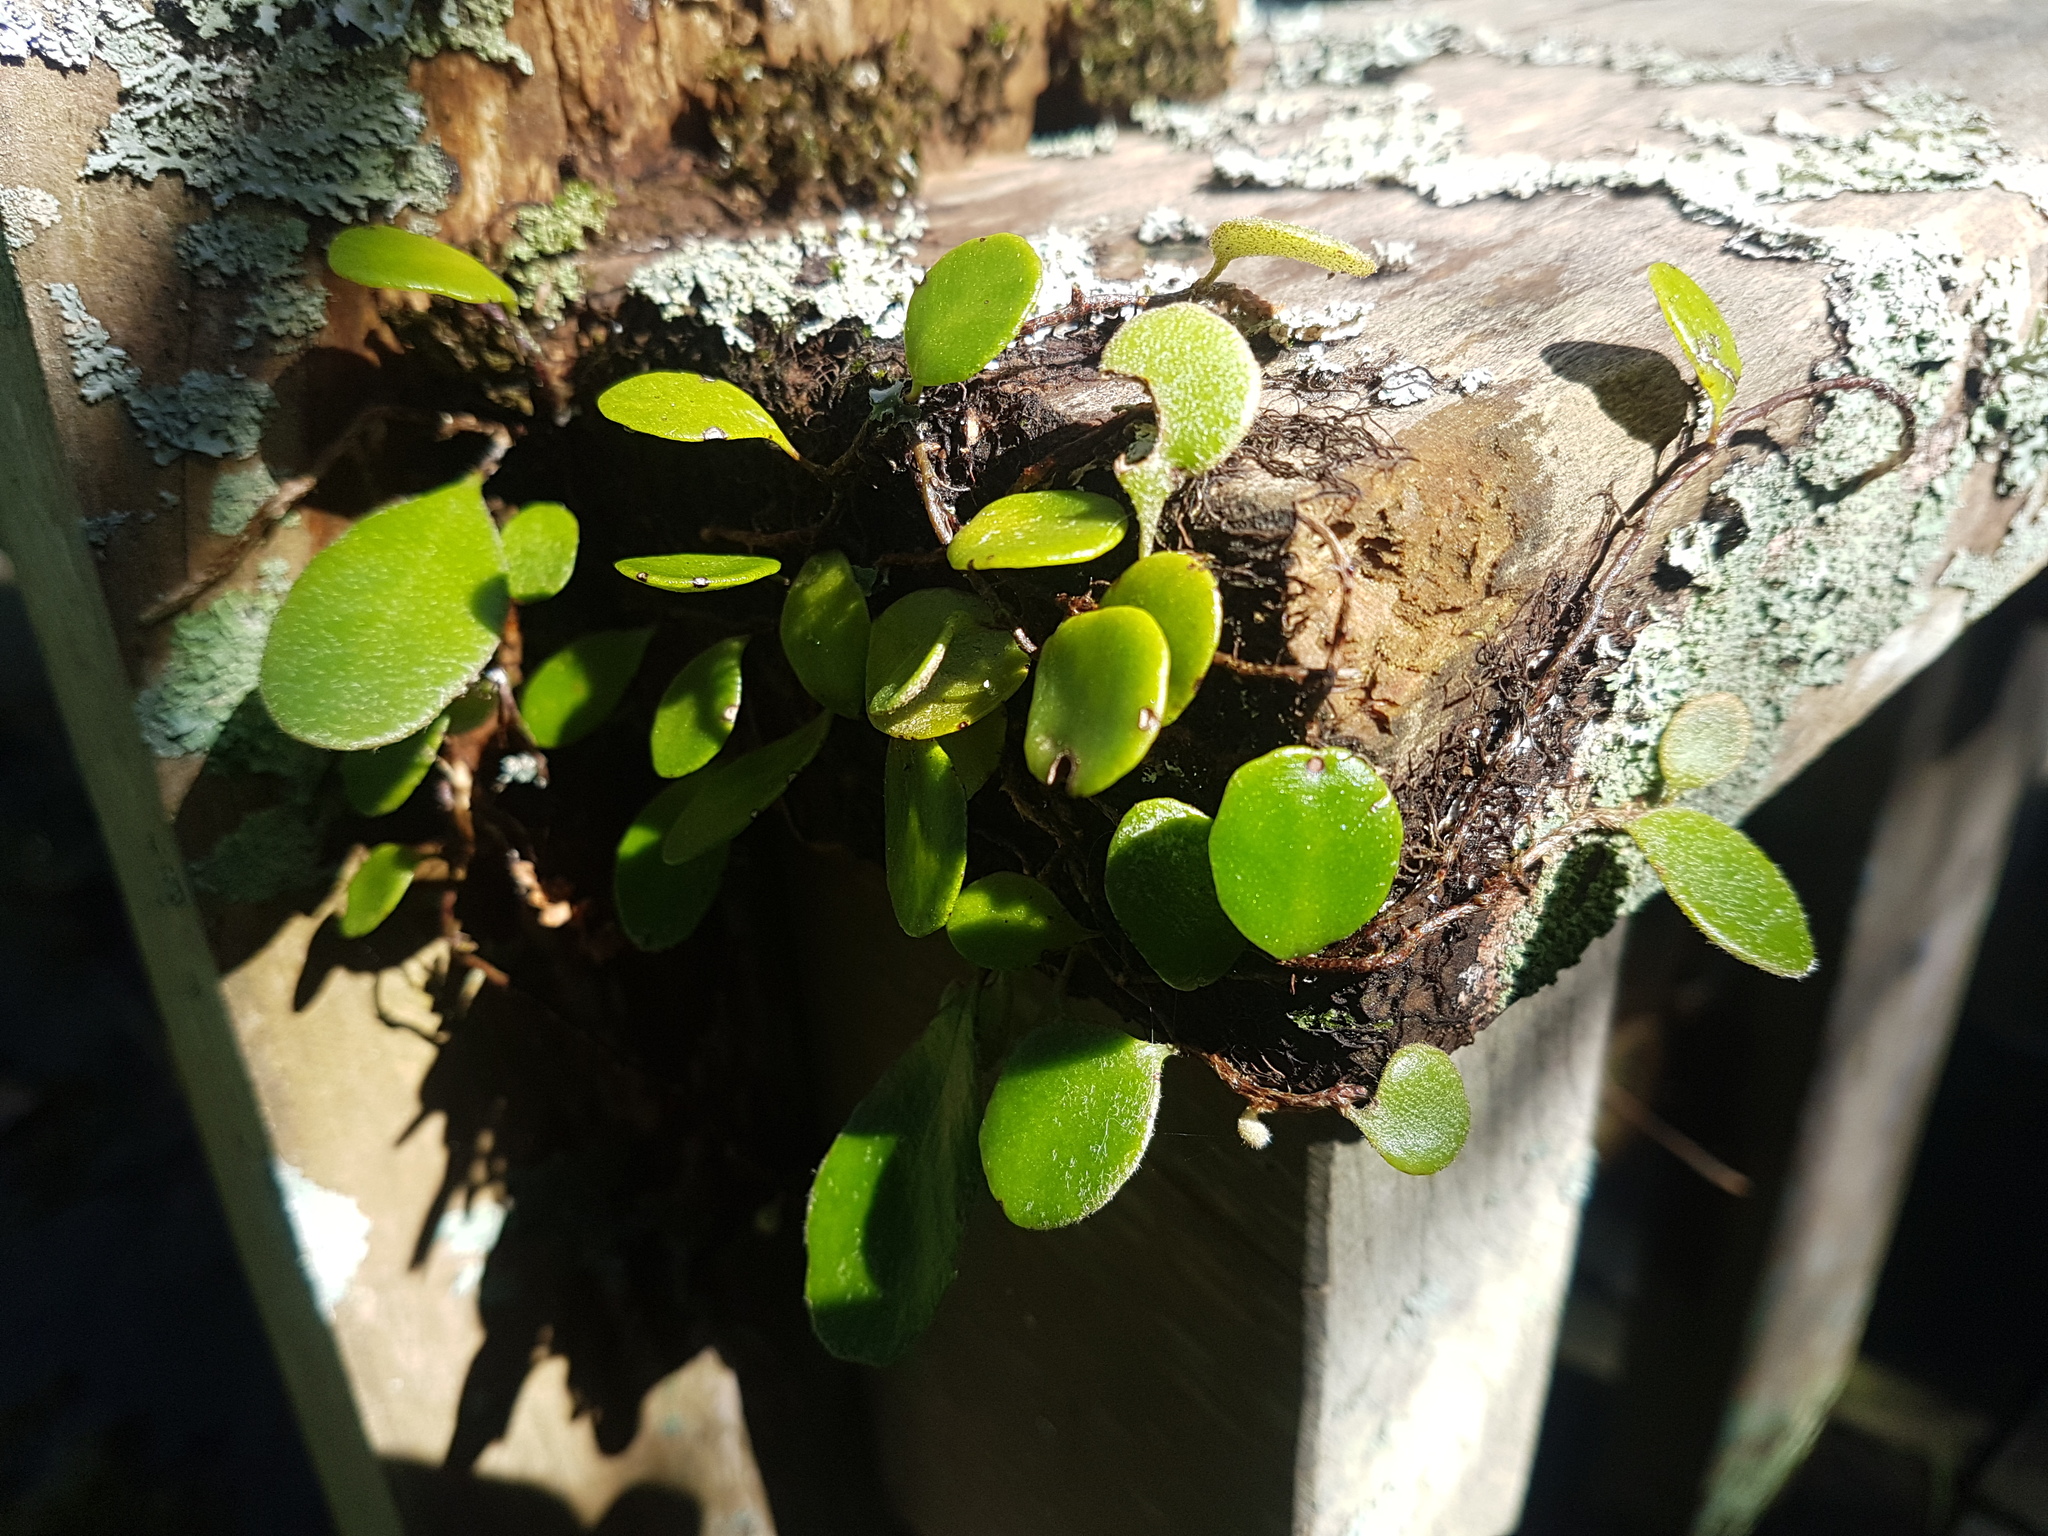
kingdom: Plantae
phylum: Tracheophyta
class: Polypodiopsida
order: Polypodiales
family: Polypodiaceae
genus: Pyrrosia
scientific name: Pyrrosia eleagnifolia
